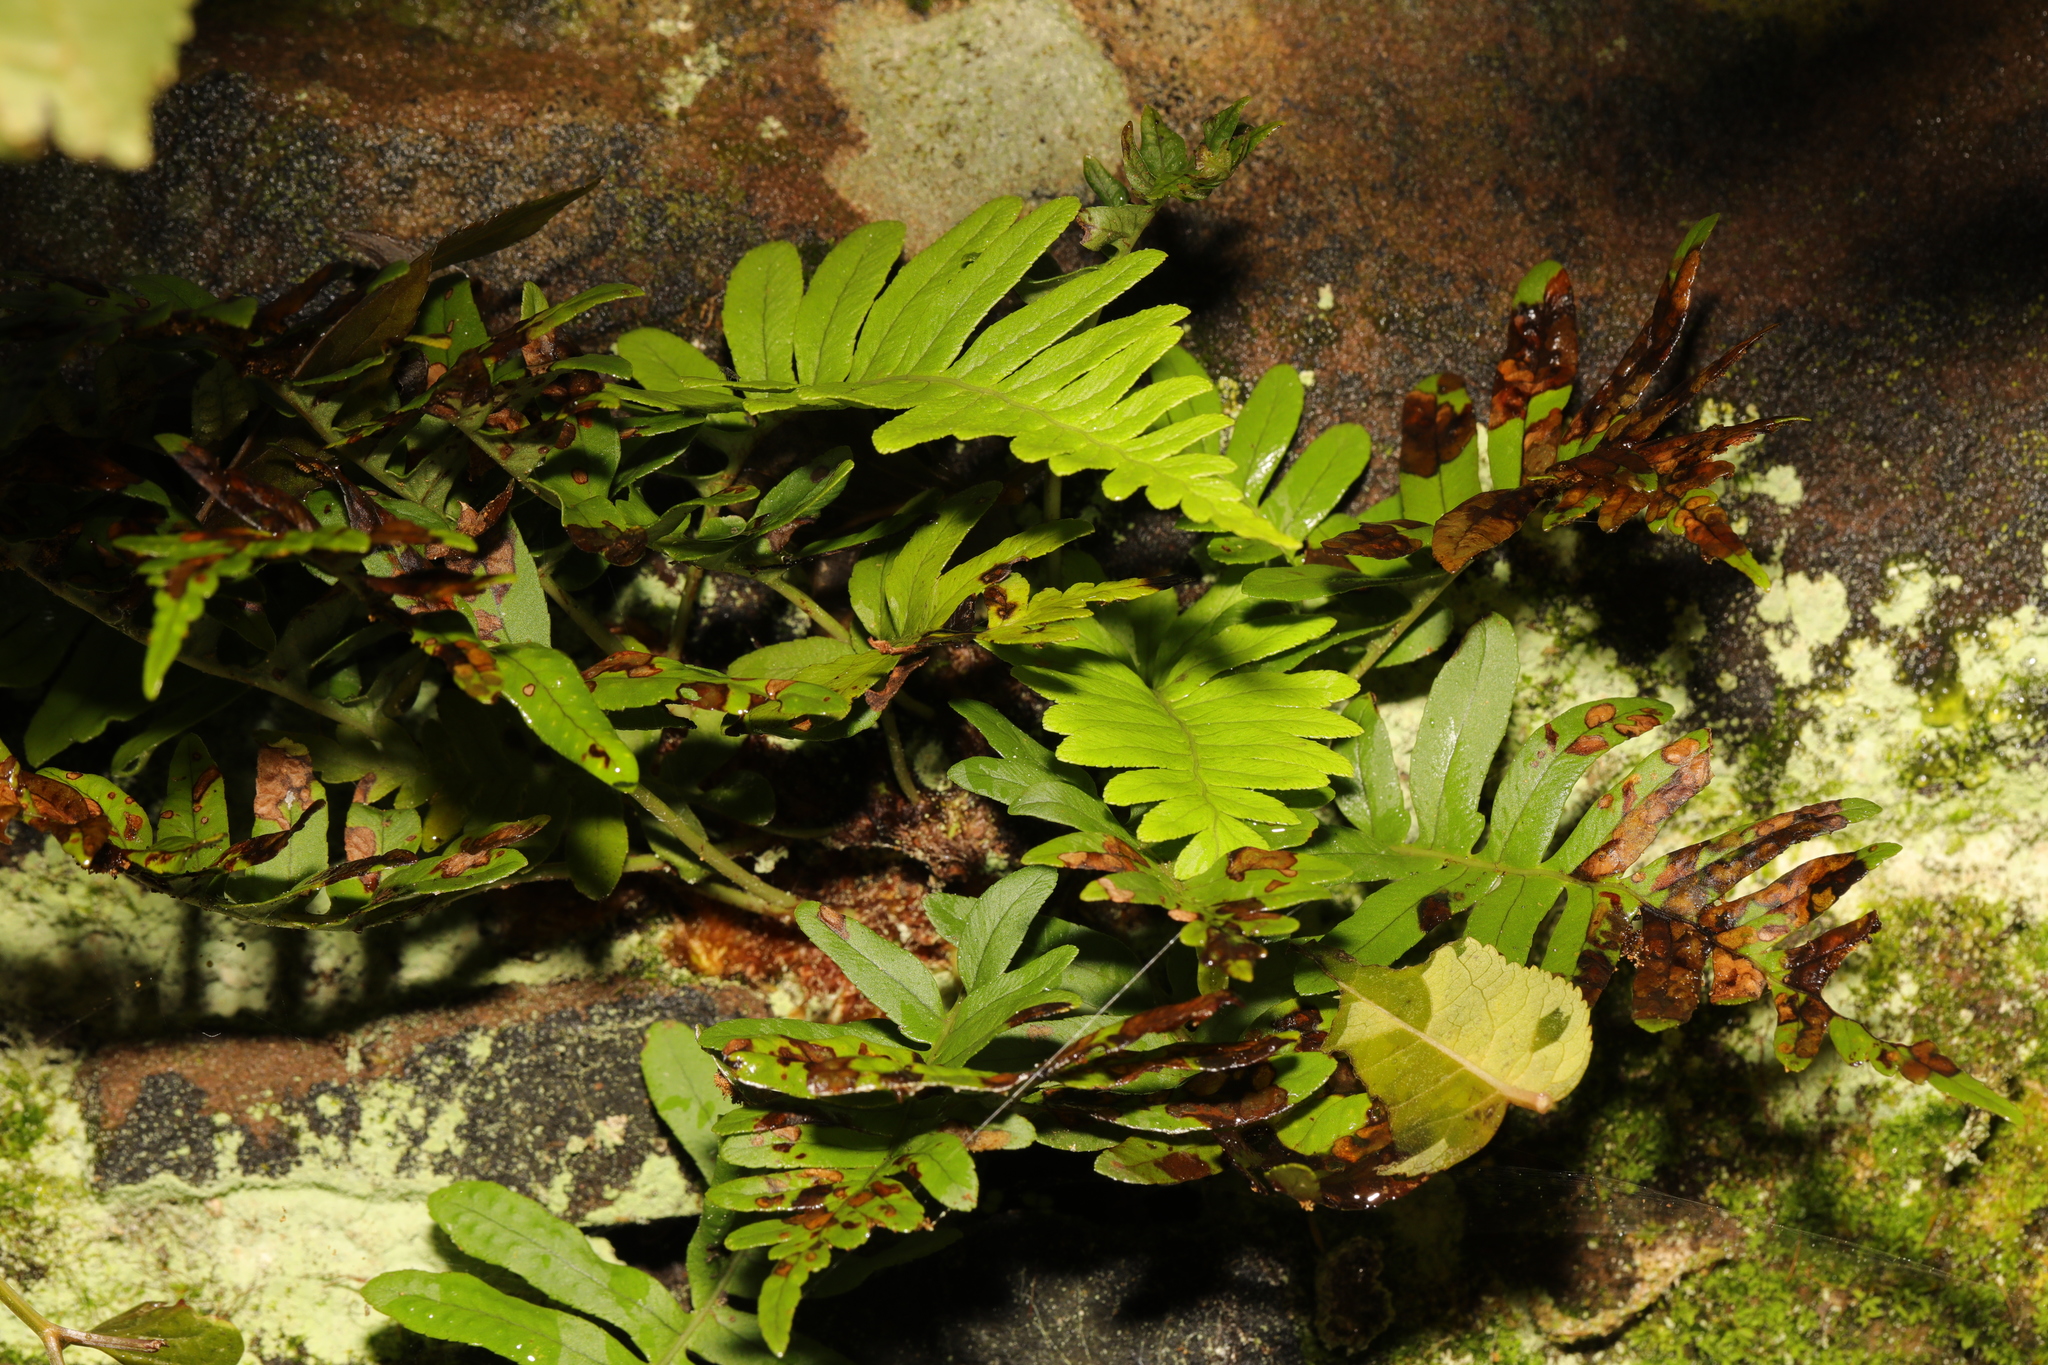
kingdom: Plantae
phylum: Tracheophyta
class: Polypodiopsida
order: Polypodiales
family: Polypodiaceae
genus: Polypodium
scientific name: Polypodium vulgare
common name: Common polypody
